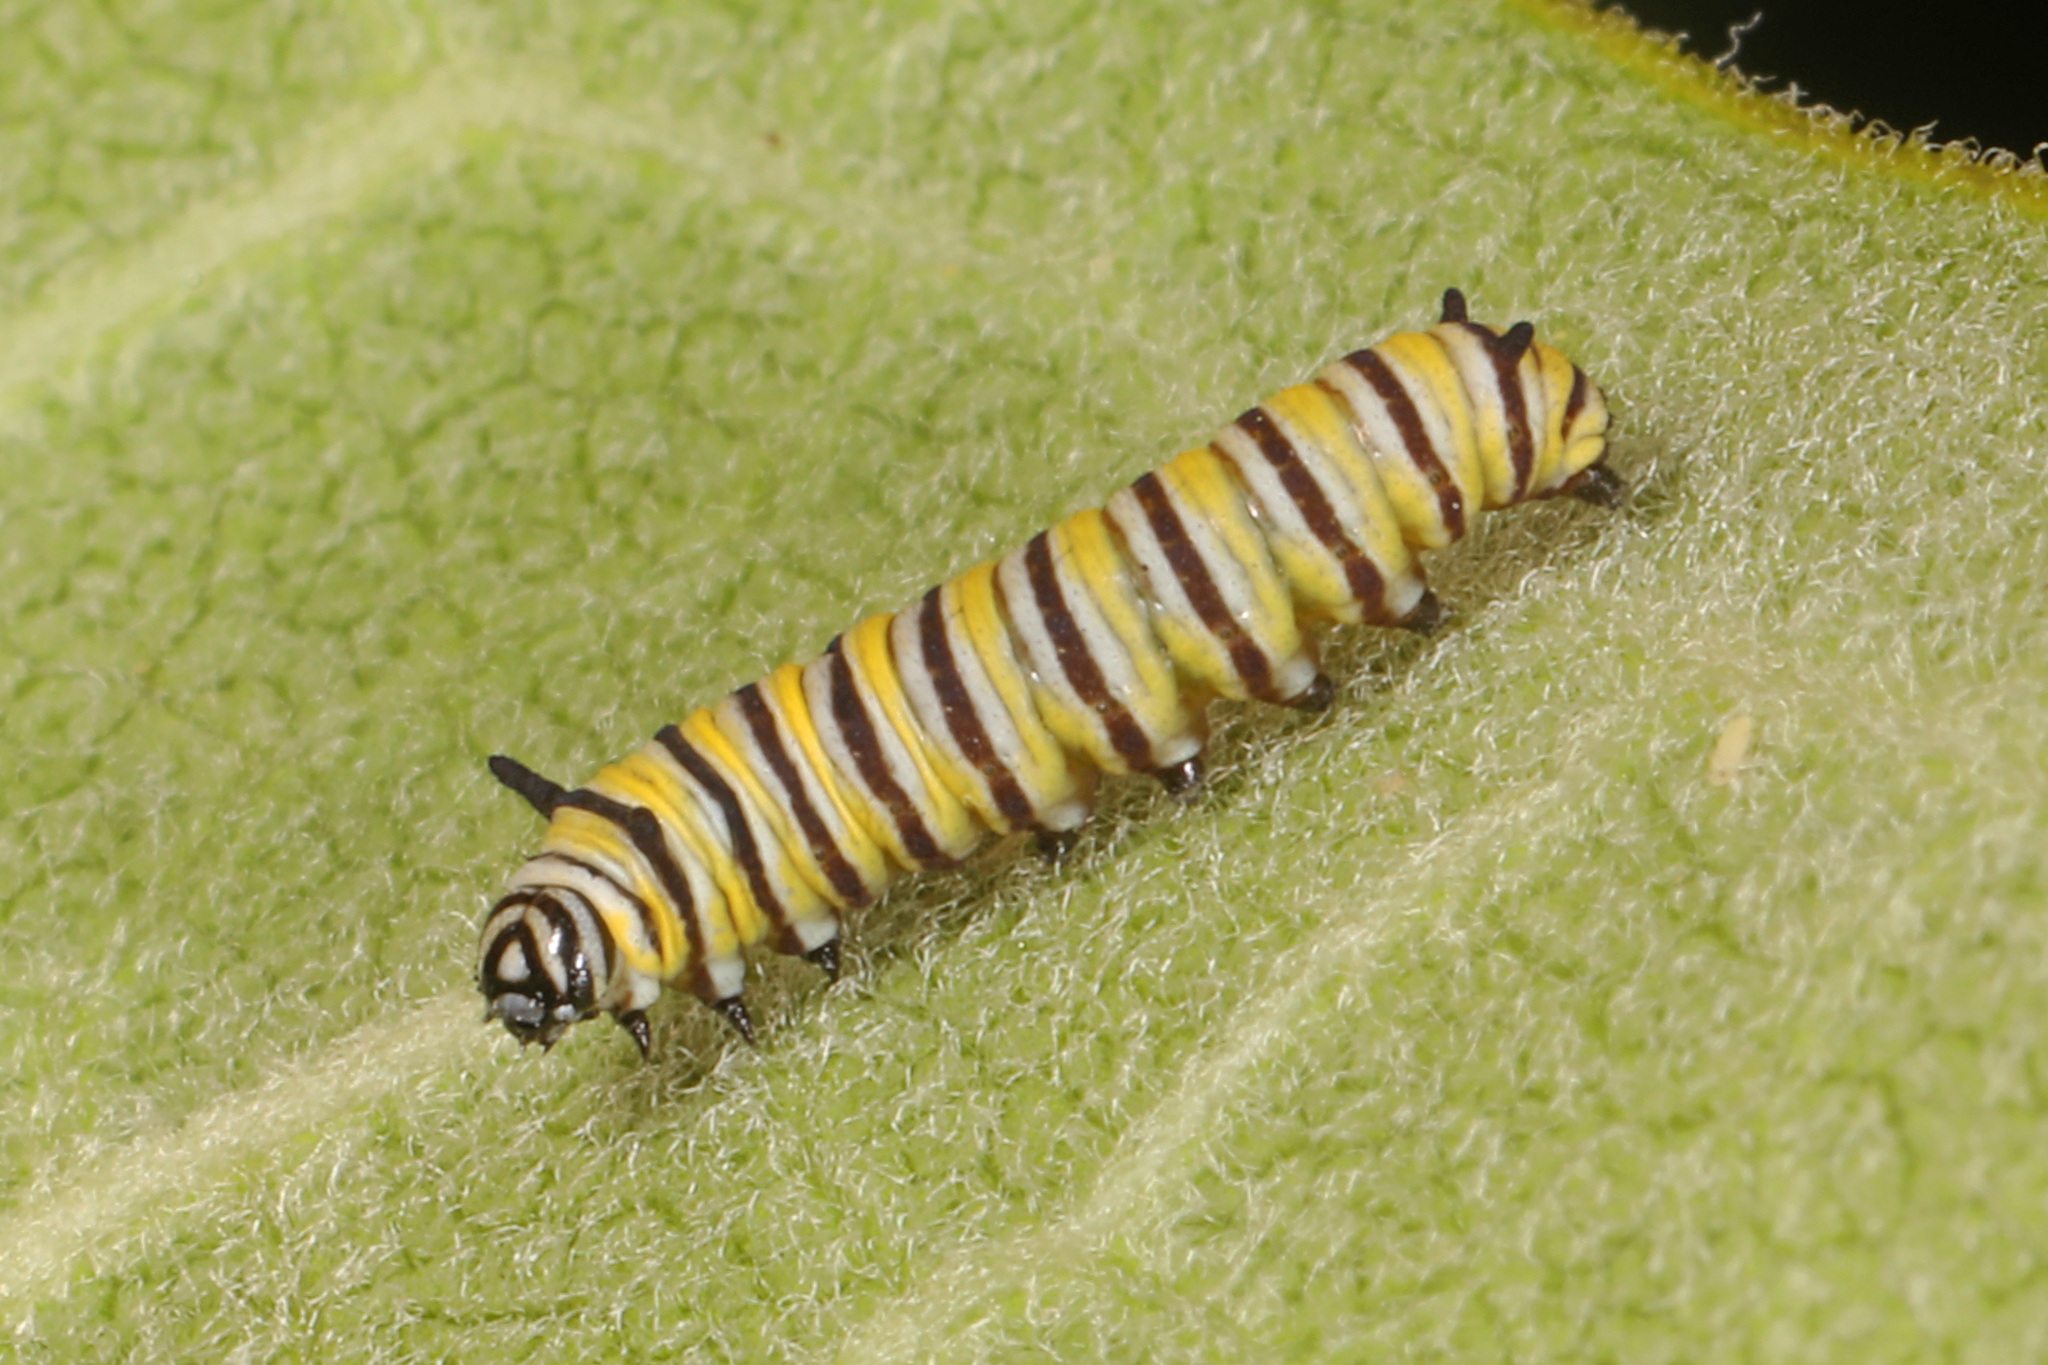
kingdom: Animalia
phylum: Arthropoda
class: Insecta
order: Lepidoptera
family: Nymphalidae
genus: Danaus
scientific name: Danaus plexippus
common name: Monarch
